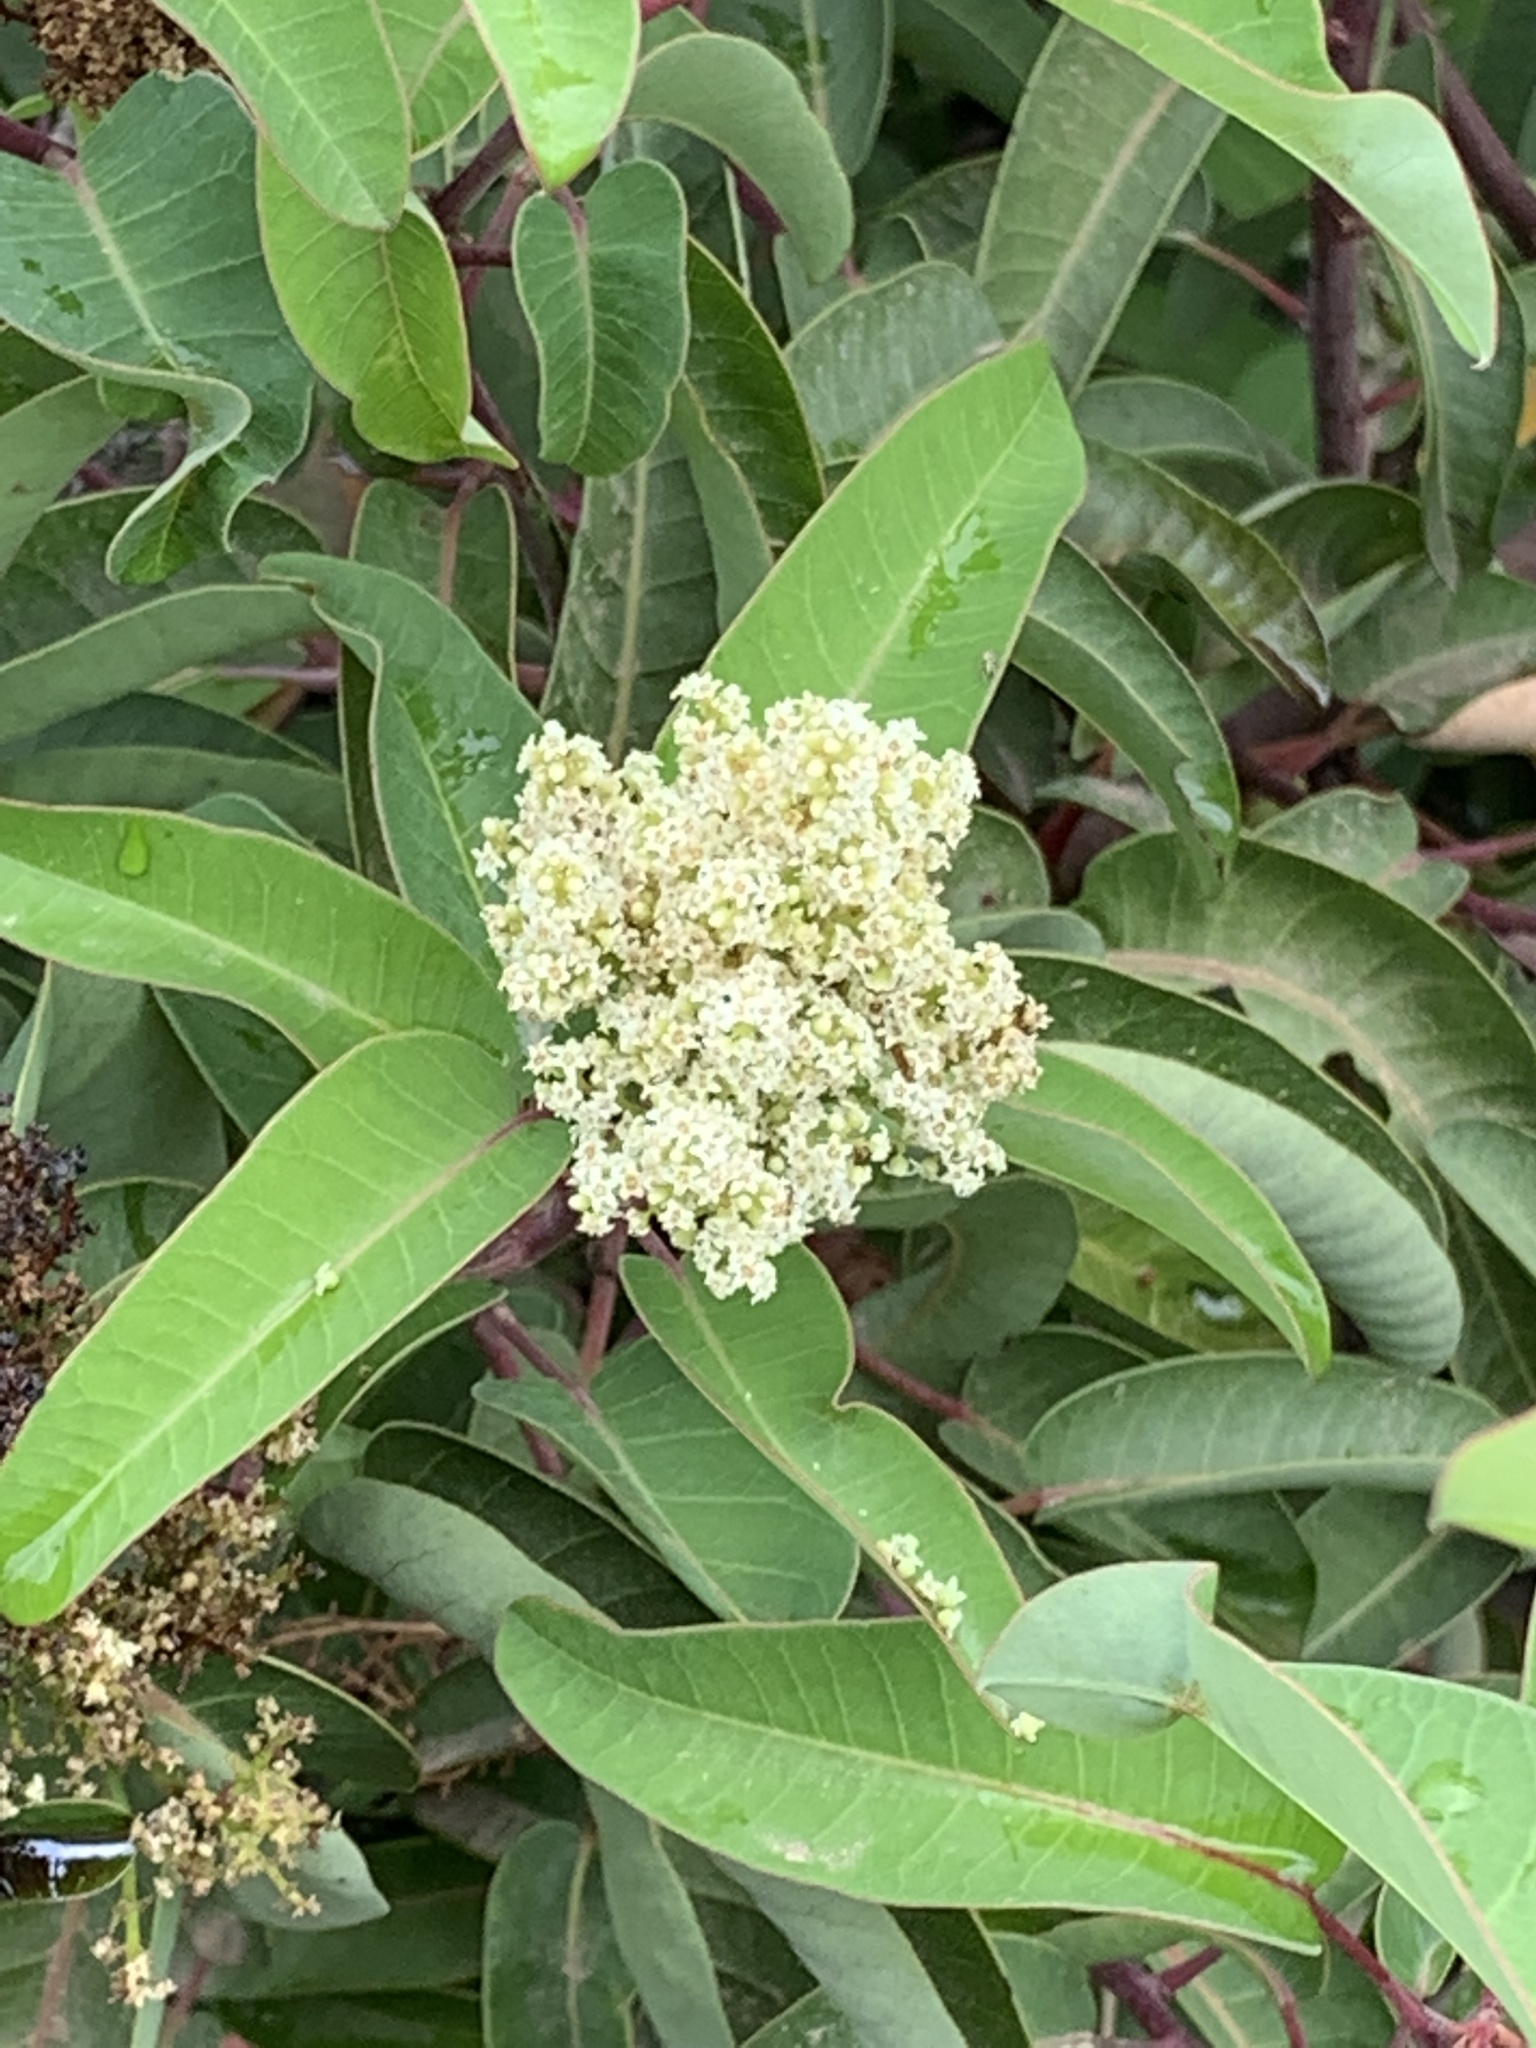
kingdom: Plantae
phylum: Tracheophyta
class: Magnoliopsida
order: Sapindales
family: Anacardiaceae
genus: Malosma
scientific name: Malosma laurina
